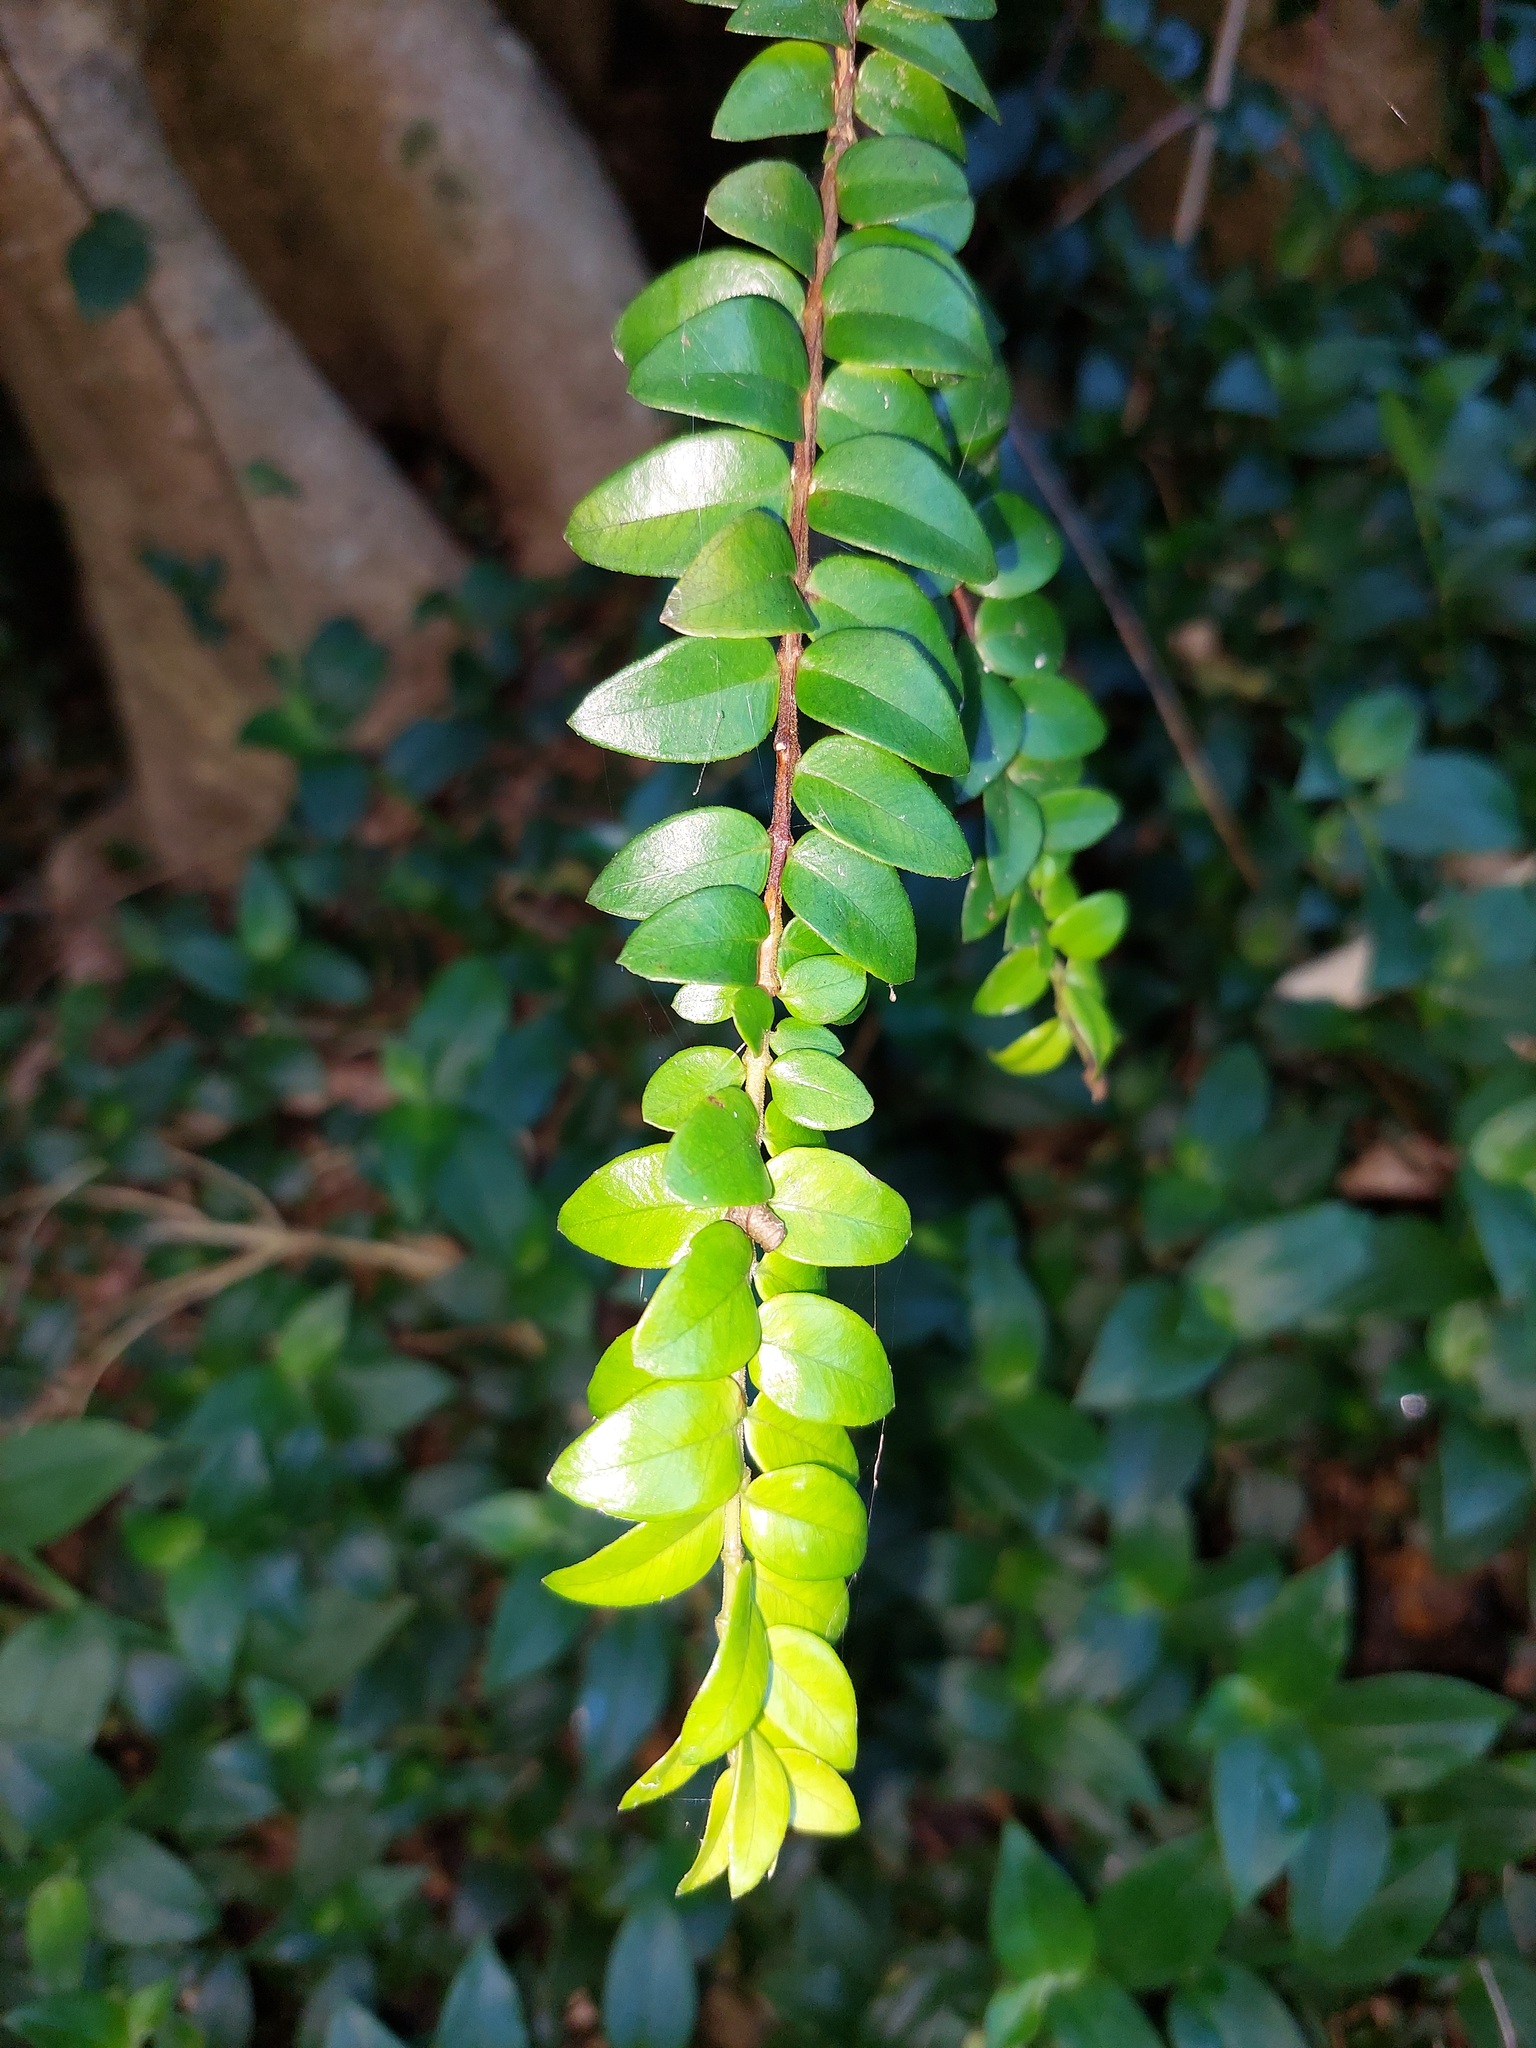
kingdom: Plantae
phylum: Tracheophyta
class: Magnoliopsida
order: Myrtales
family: Myrtaceae
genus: Metrosideros
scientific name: Metrosideros diffusa
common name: Small ratavine
